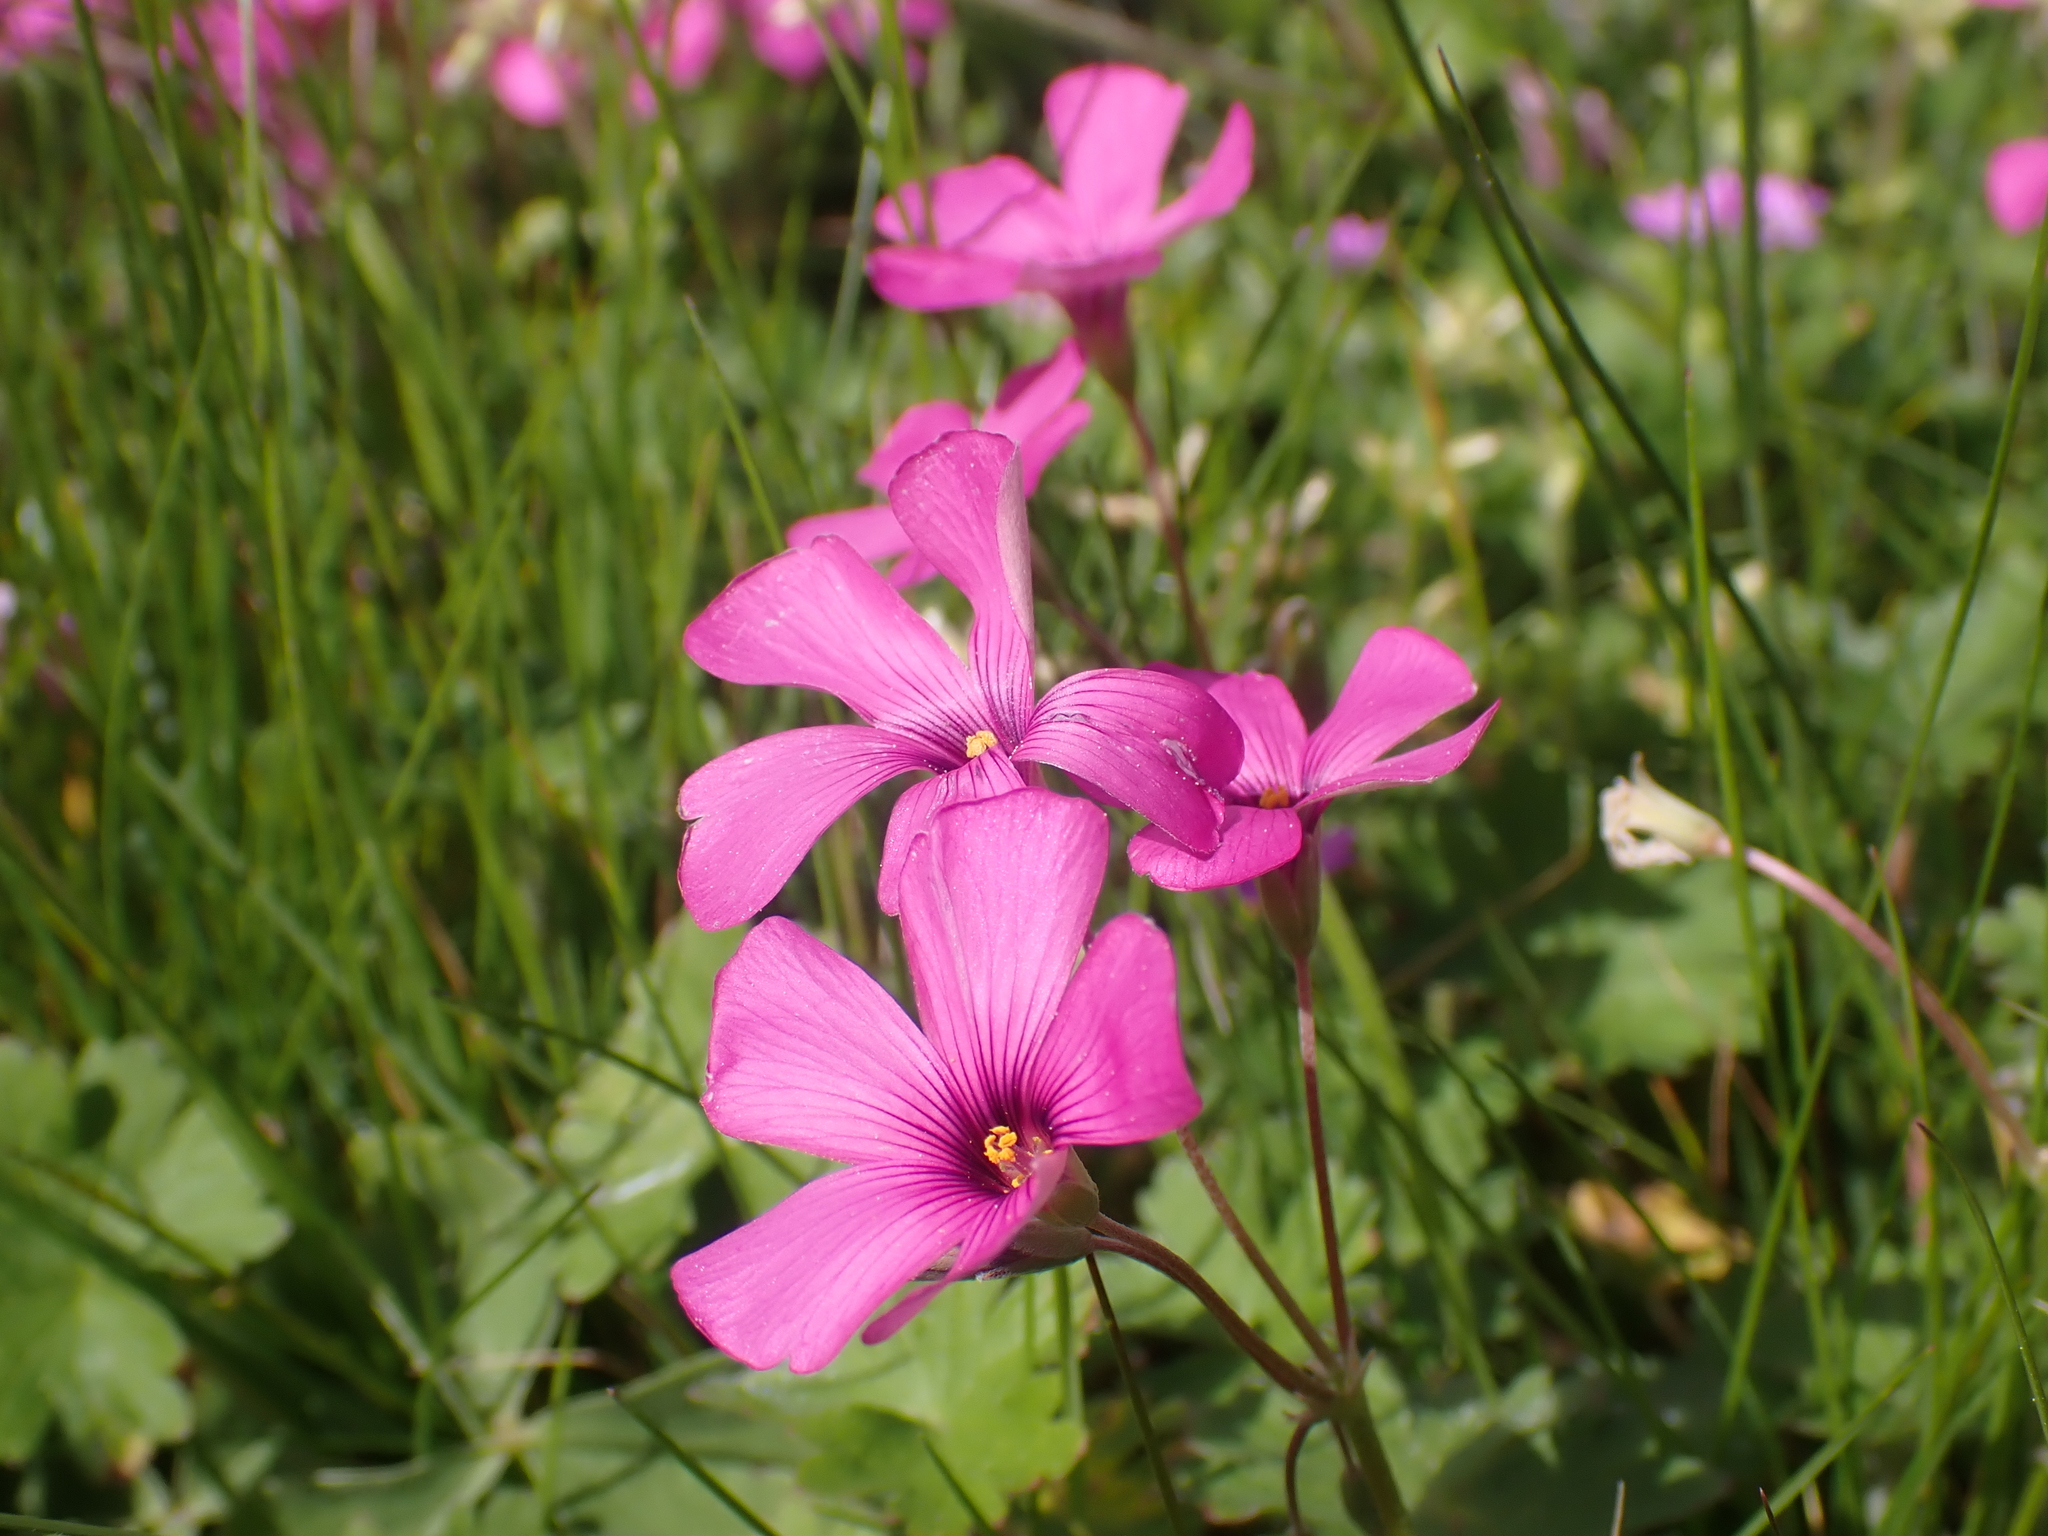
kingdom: Plantae
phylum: Tracheophyta
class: Magnoliopsida
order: Oxalidales
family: Oxalidaceae
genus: Oxalis
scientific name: Oxalis articulata
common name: Pink-sorrel
